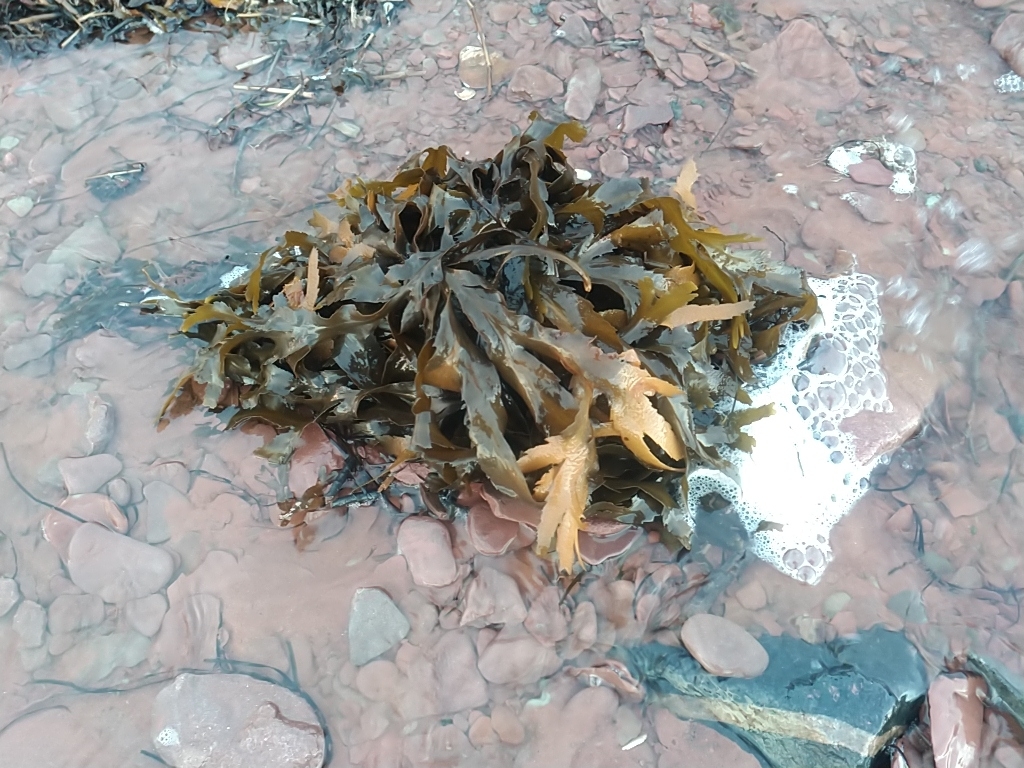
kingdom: Chromista
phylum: Ochrophyta
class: Phaeophyceae
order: Fucales
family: Fucaceae
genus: Fucus
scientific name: Fucus serratus
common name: Toothed wrack
